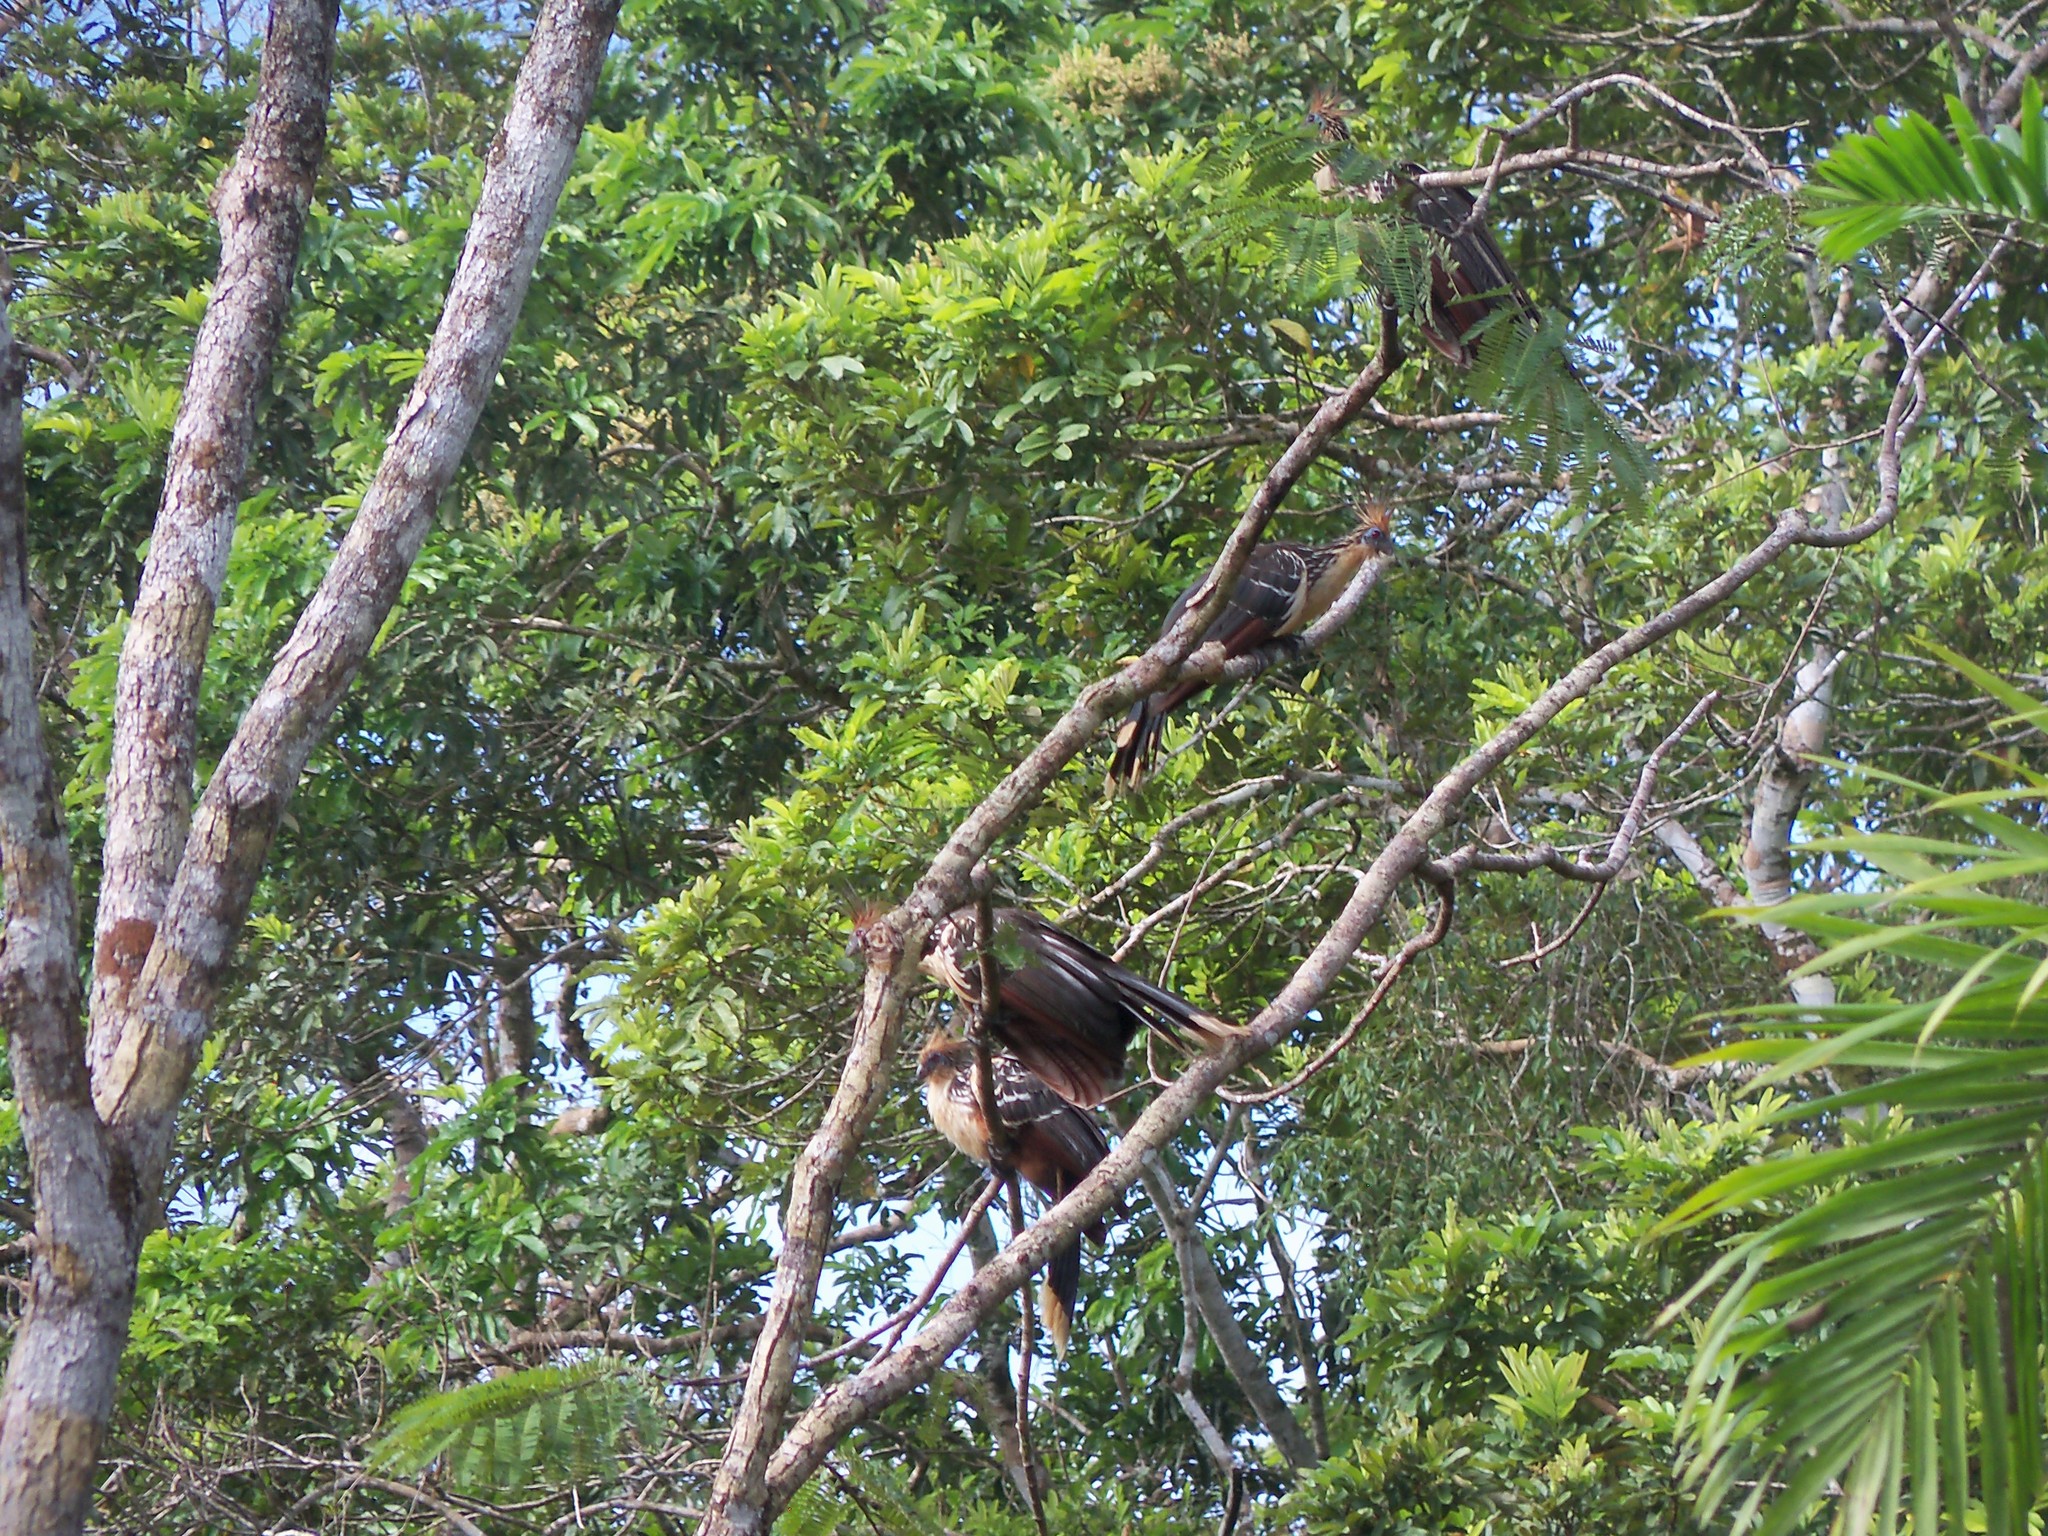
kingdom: Animalia
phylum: Chordata
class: Aves
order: Opisthocomiformes
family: Opisthocomidae
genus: Opisthocomus
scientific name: Opisthocomus hoazin
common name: Hoatzin
